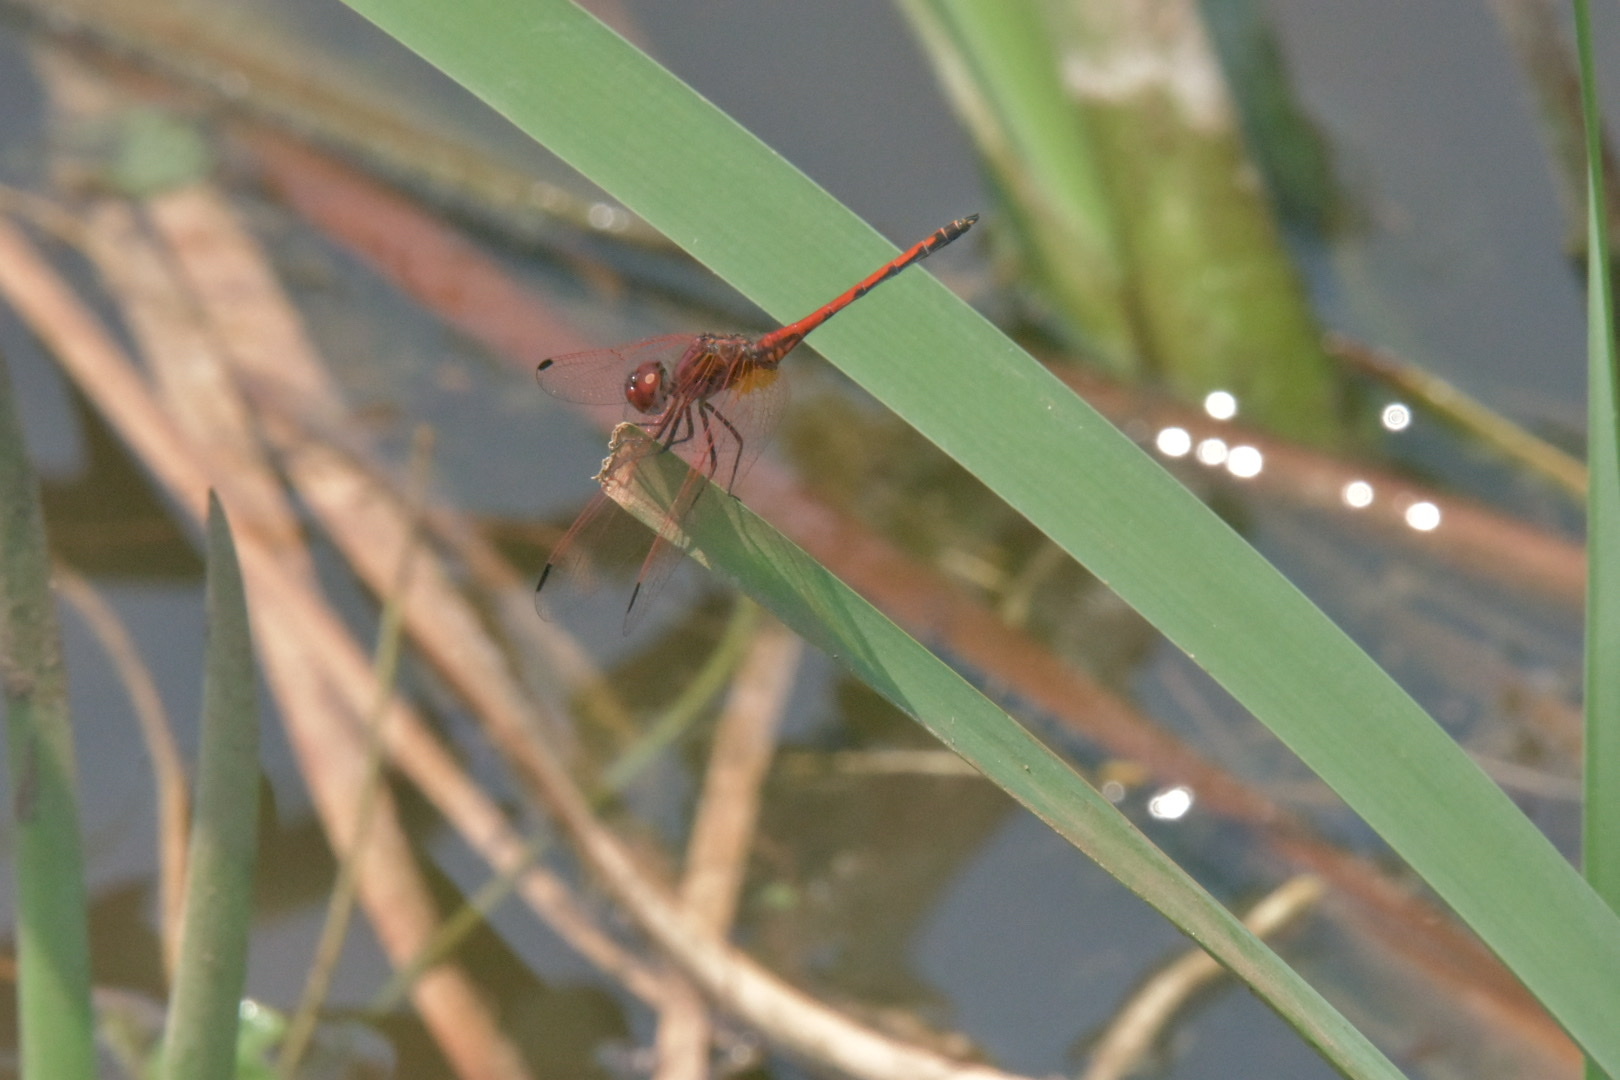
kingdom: Animalia
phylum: Arthropoda
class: Insecta
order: Odonata
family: Libellulidae
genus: Trithemis
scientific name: Trithemis arteriosa
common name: Red-veined dropwing
